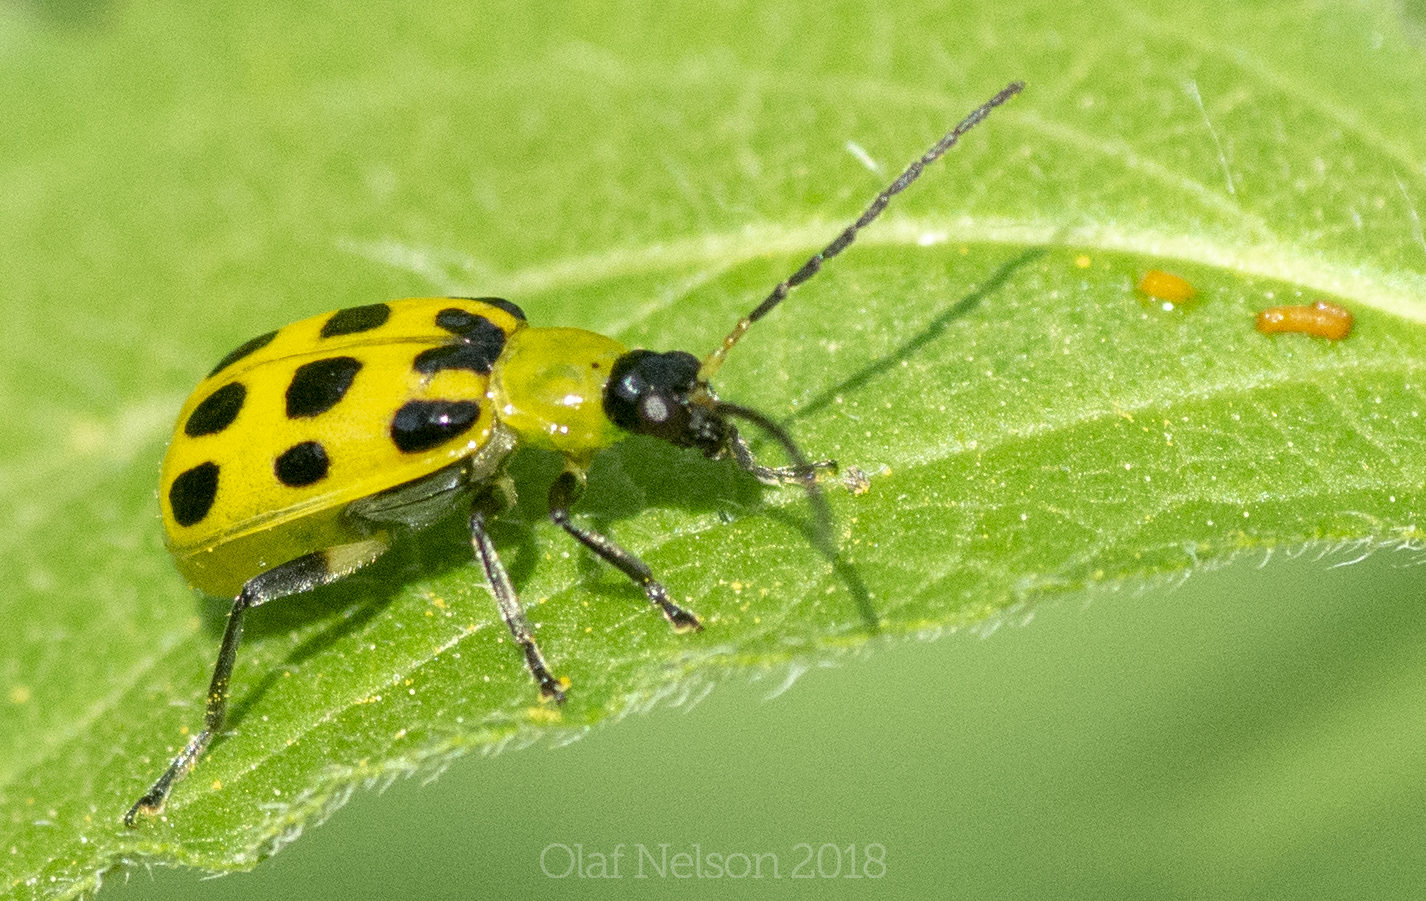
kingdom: Animalia
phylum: Arthropoda
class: Insecta
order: Coleoptera
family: Chrysomelidae
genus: Diabrotica
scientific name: Diabrotica undecimpunctata
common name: Spotted cucumber beetle
